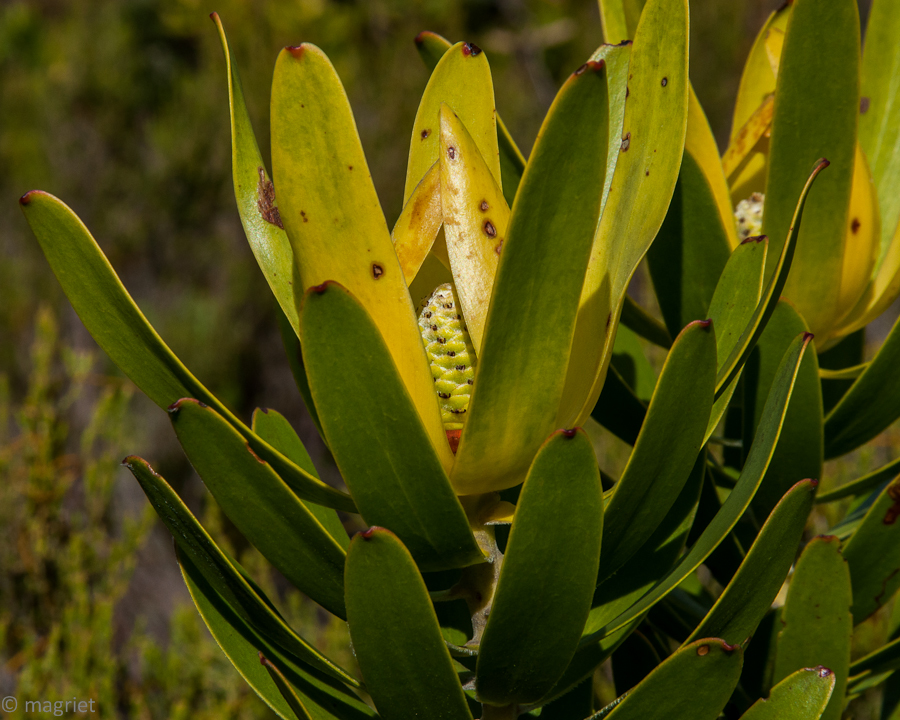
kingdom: Plantae
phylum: Tracheophyta
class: Magnoliopsida
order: Proteales
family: Proteaceae
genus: Leucadendron
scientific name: Leucadendron laureolum
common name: Golden sunshinebush
